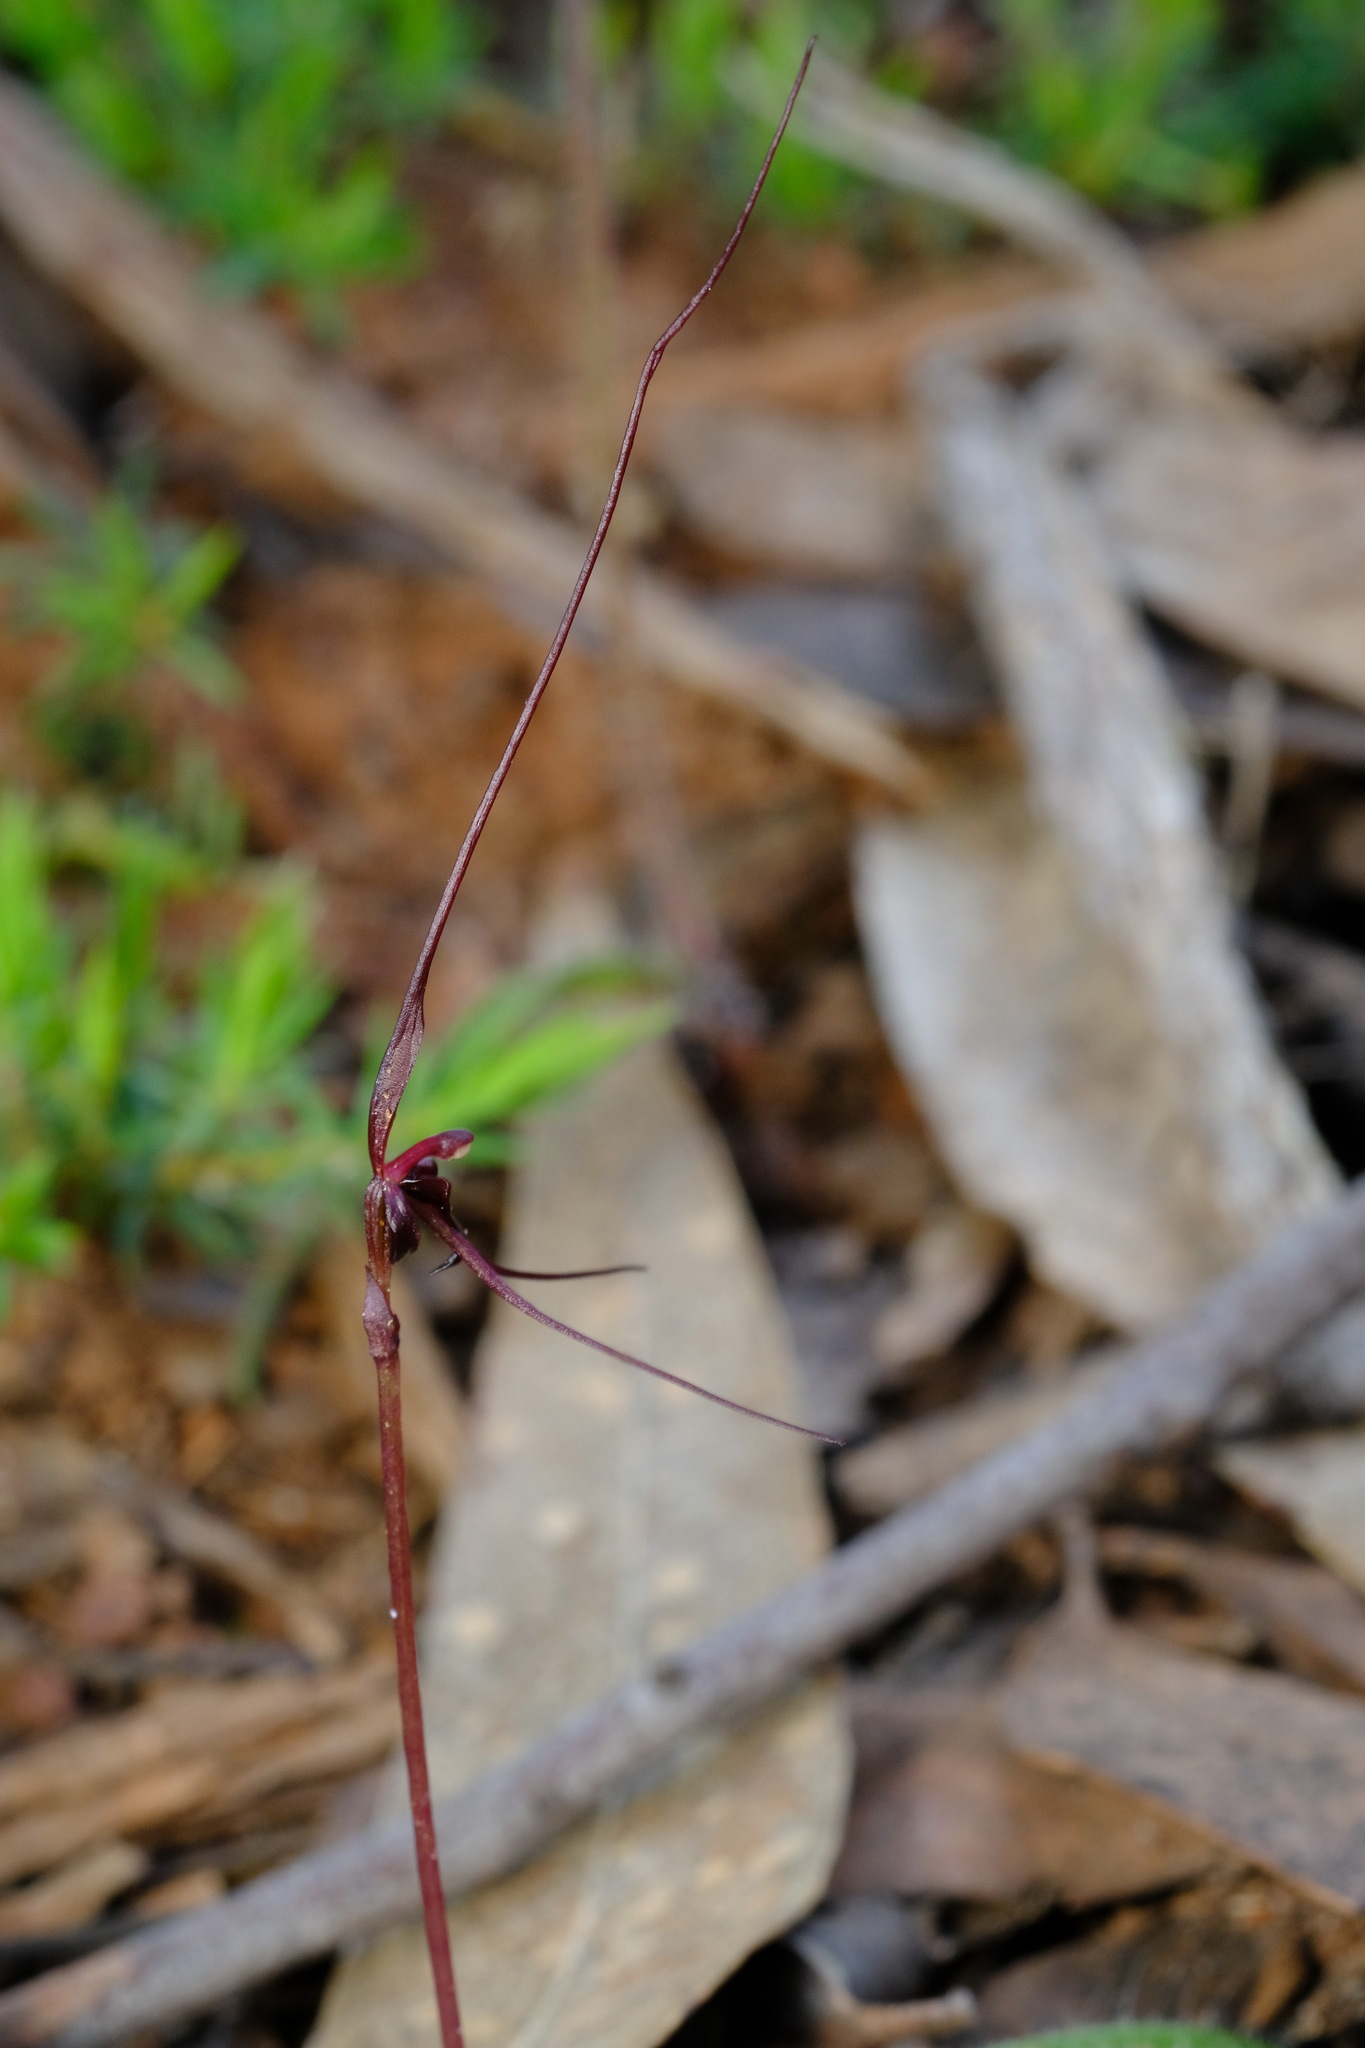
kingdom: Plantae
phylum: Tracheophyta
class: Liliopsida
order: Asparagales
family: Orchidaceae
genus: Acianthus
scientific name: Acianthus caudatus
